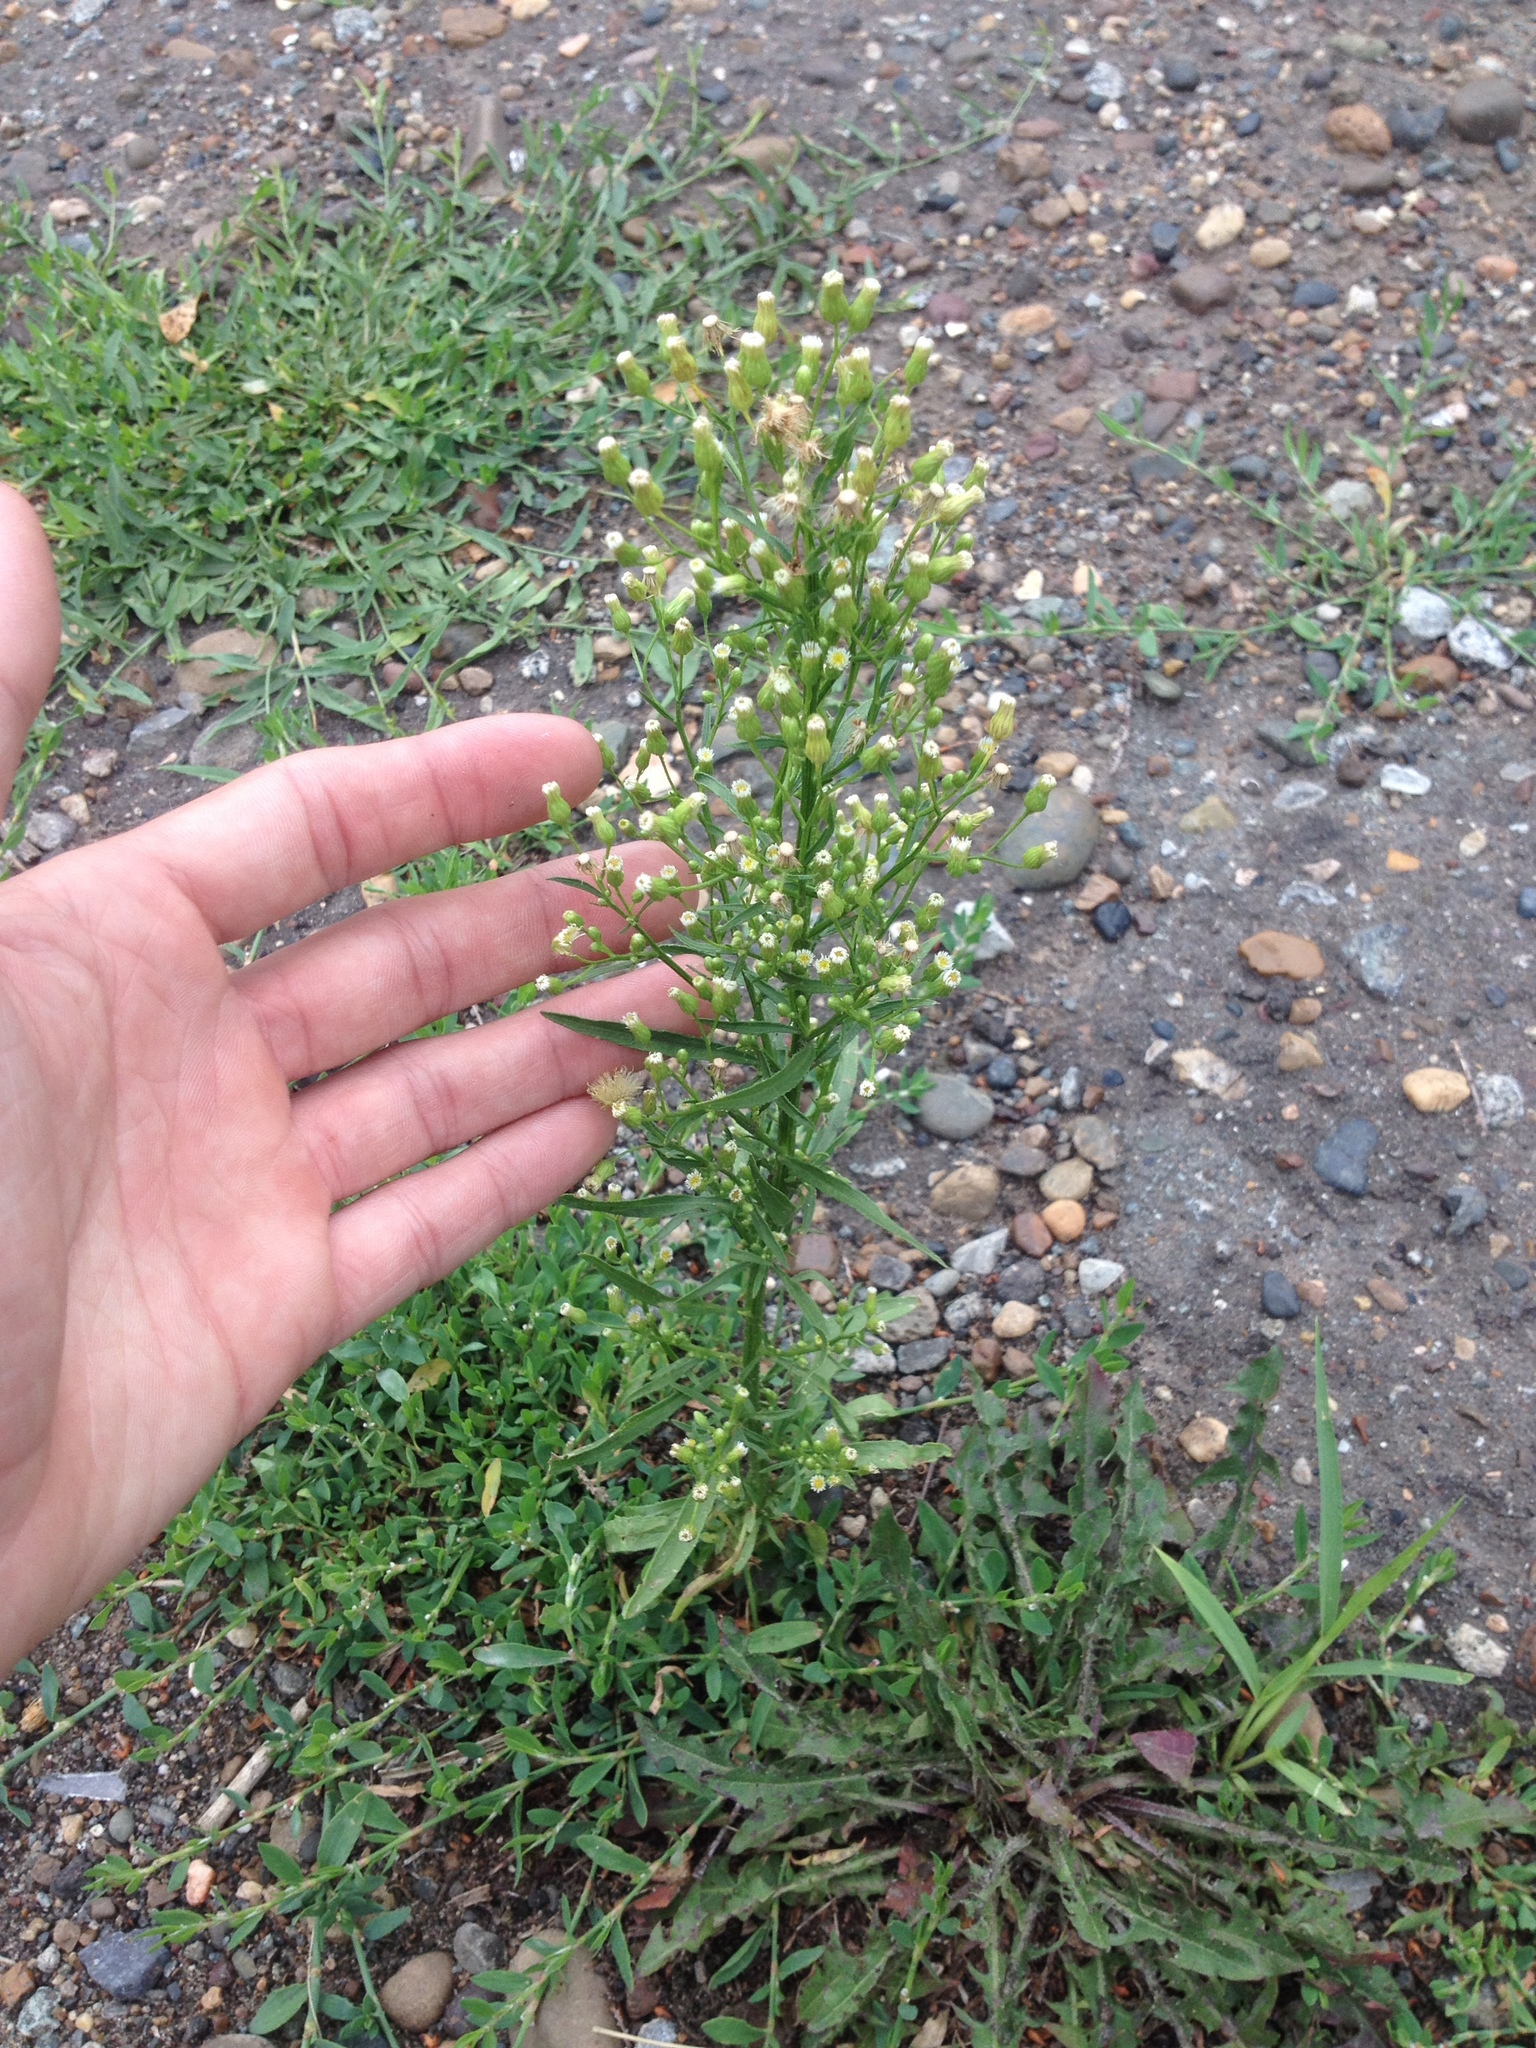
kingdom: Plantae
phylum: Tracheophyta
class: Magnoliopsida
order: Asterales
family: Asteraceae
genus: Erigeron
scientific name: Erigeron canadensis
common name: Canadian fleabane
